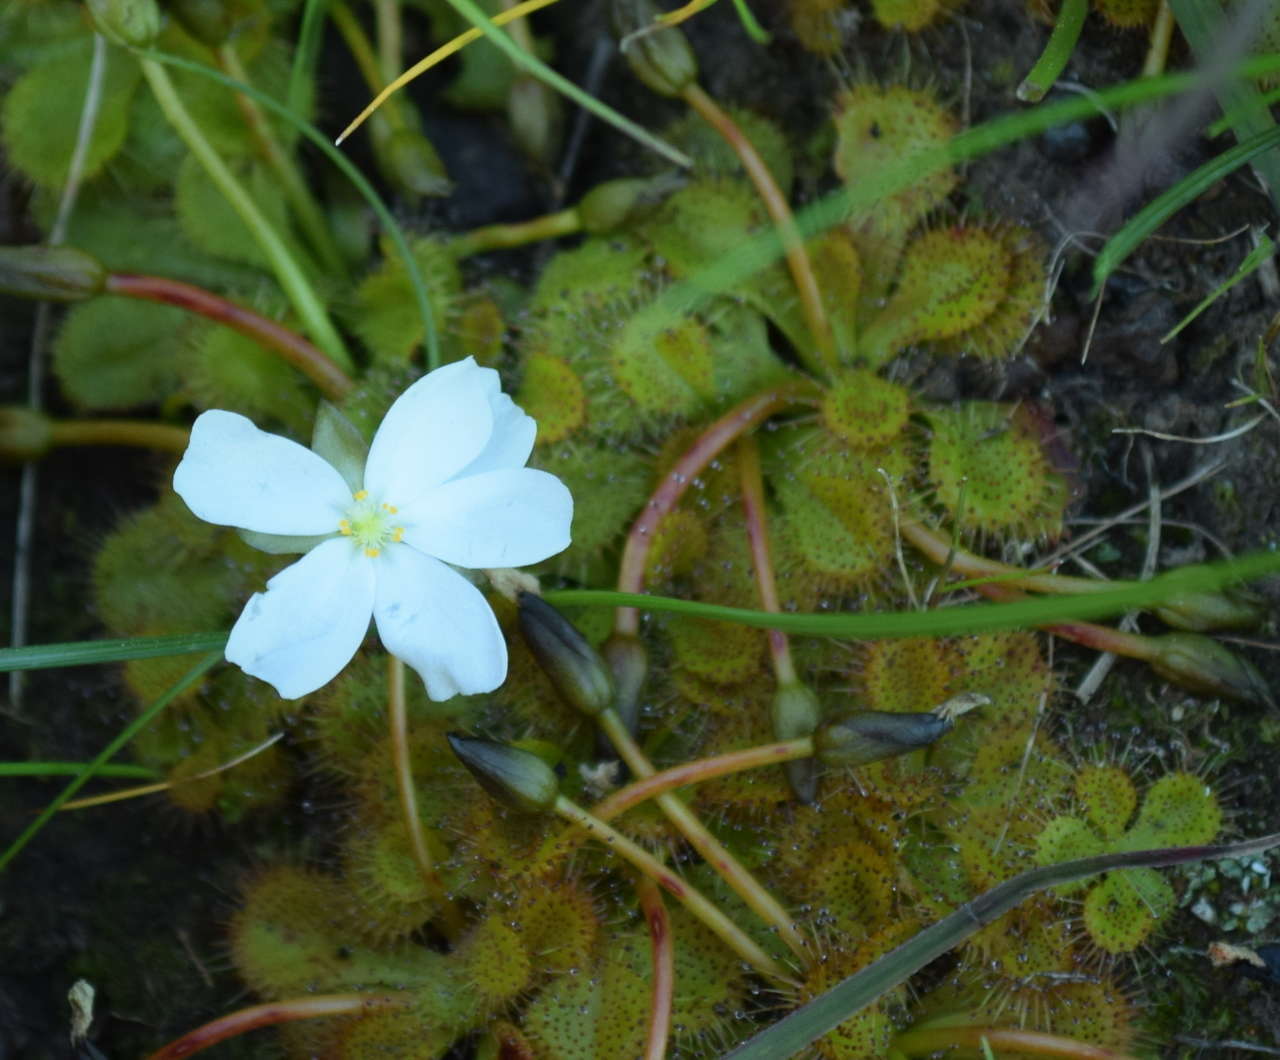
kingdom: Plantae
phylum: Tracheophyta
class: Magnoliopsida
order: Caryophyllales
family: Droseraceae
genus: Drosera
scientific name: Drosera aberrans
